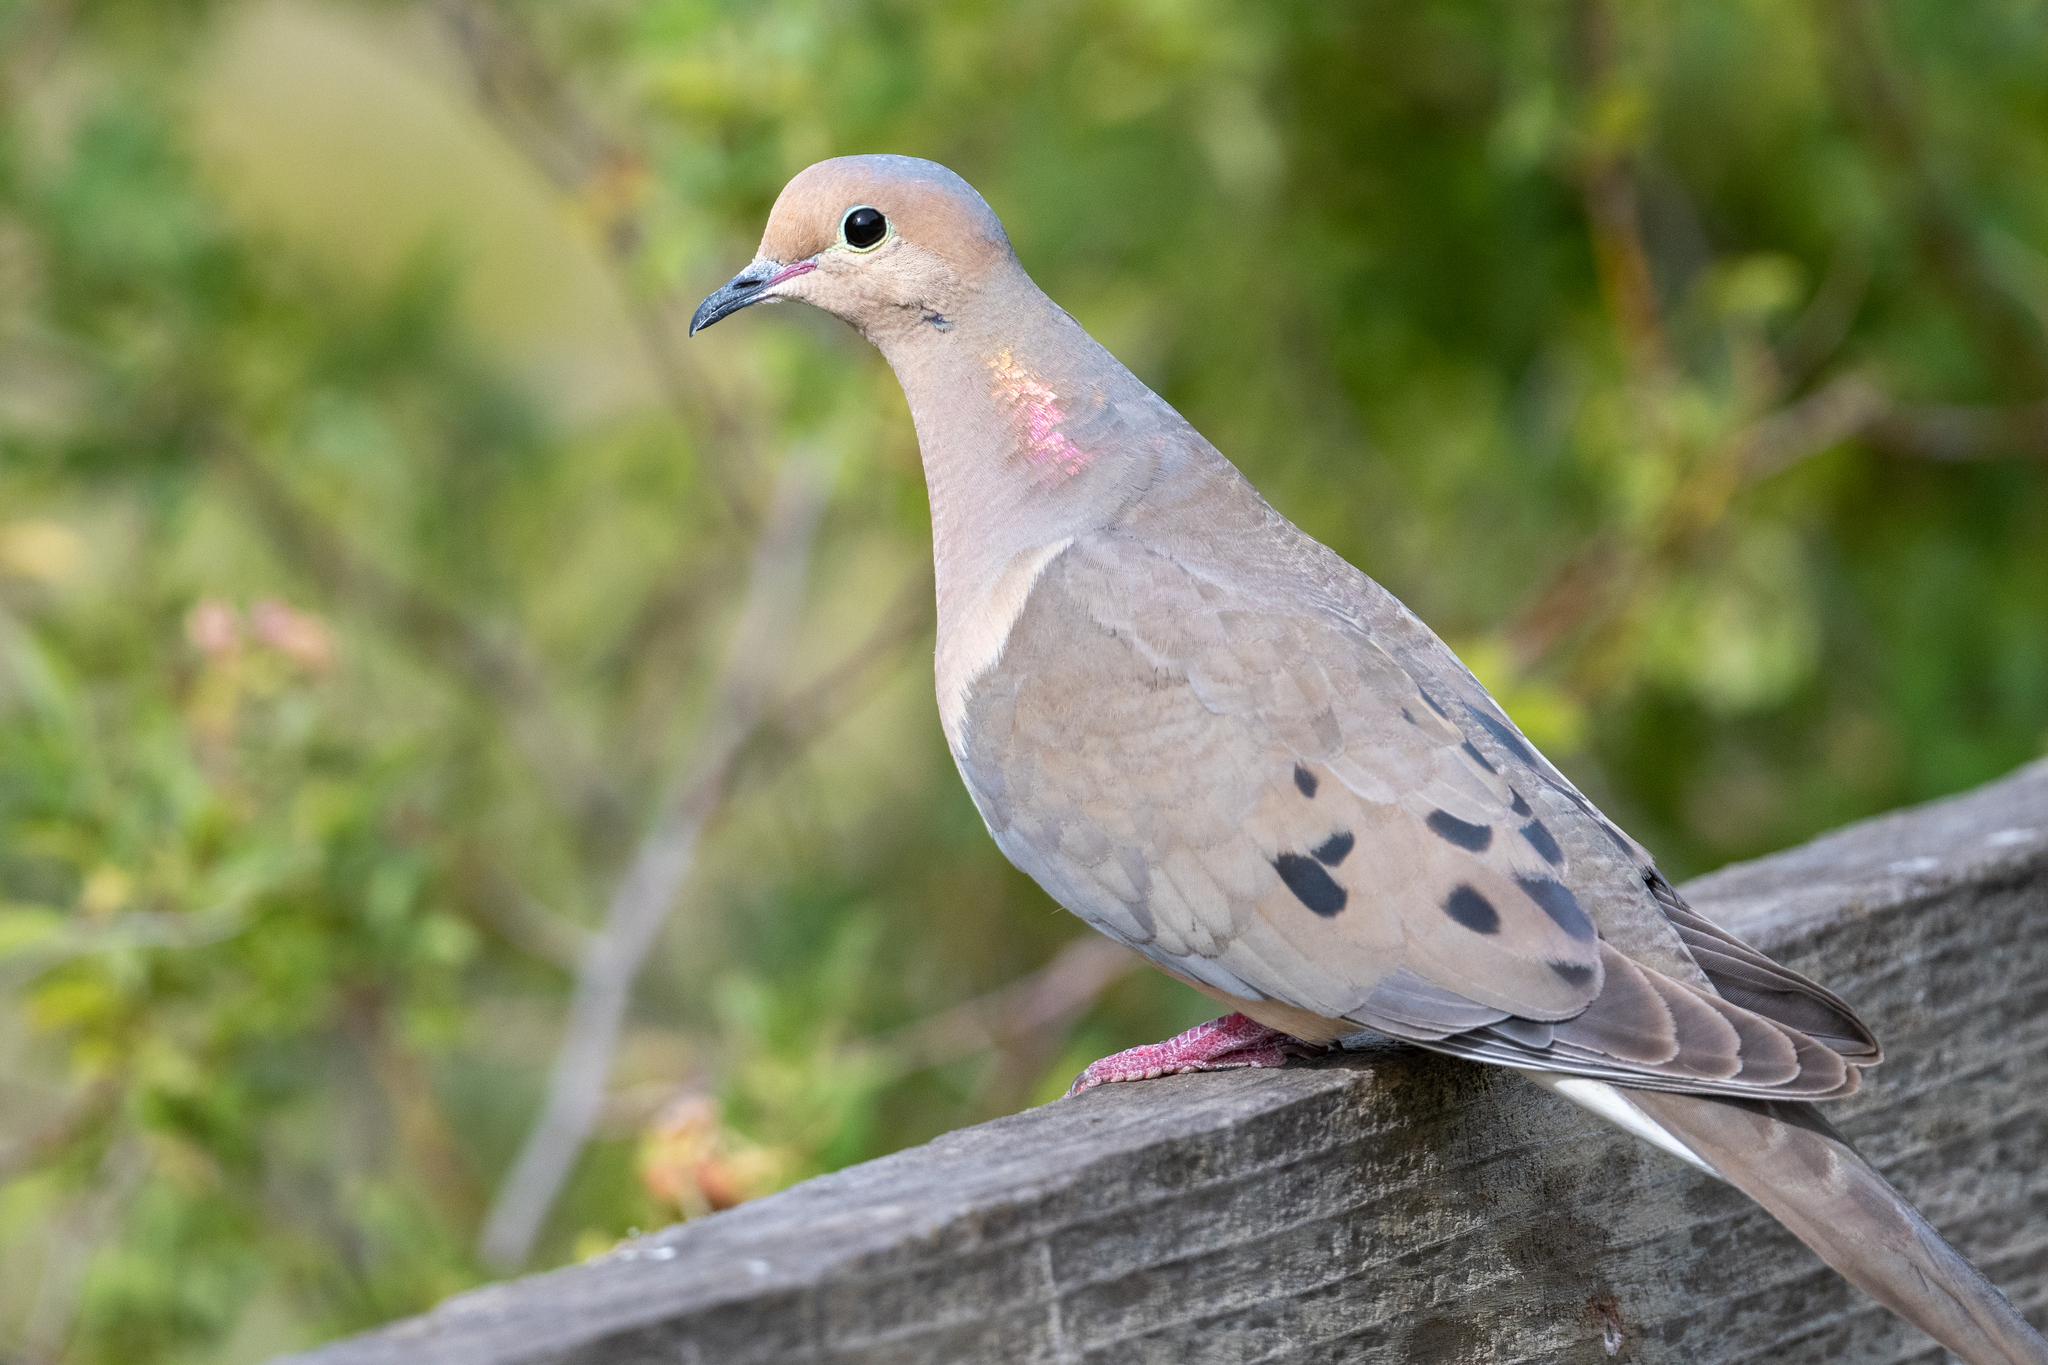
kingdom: Animalia
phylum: Chordata
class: Aves
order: Columbiformes
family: Columbidae
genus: Zenaida
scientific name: Zenaida macroura
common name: Mourning dove
